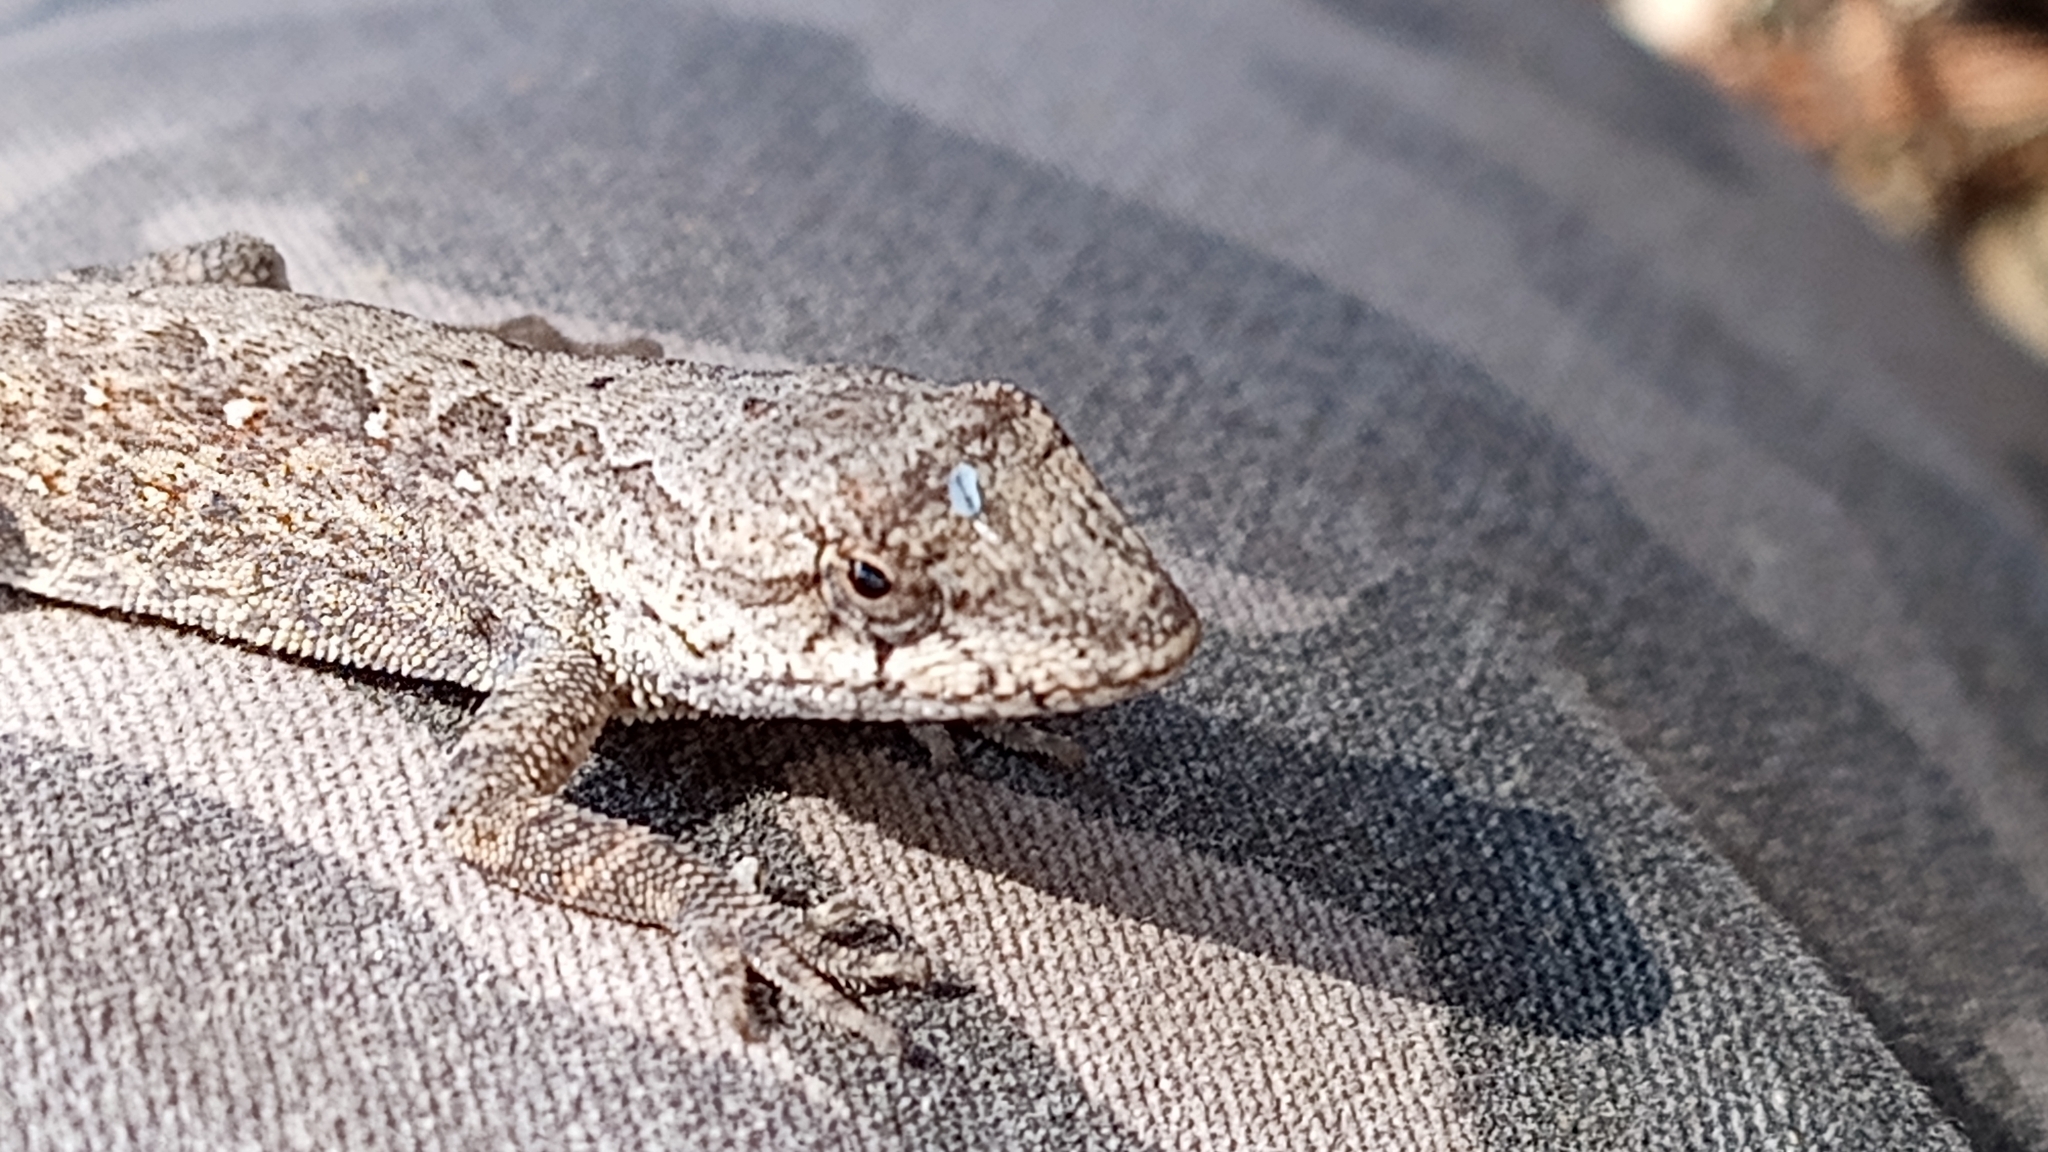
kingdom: Animalia
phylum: Chordata
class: Squamata
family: Dactyloidae
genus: Anolis
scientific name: Anolis nebulosus
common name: Clouded anole
